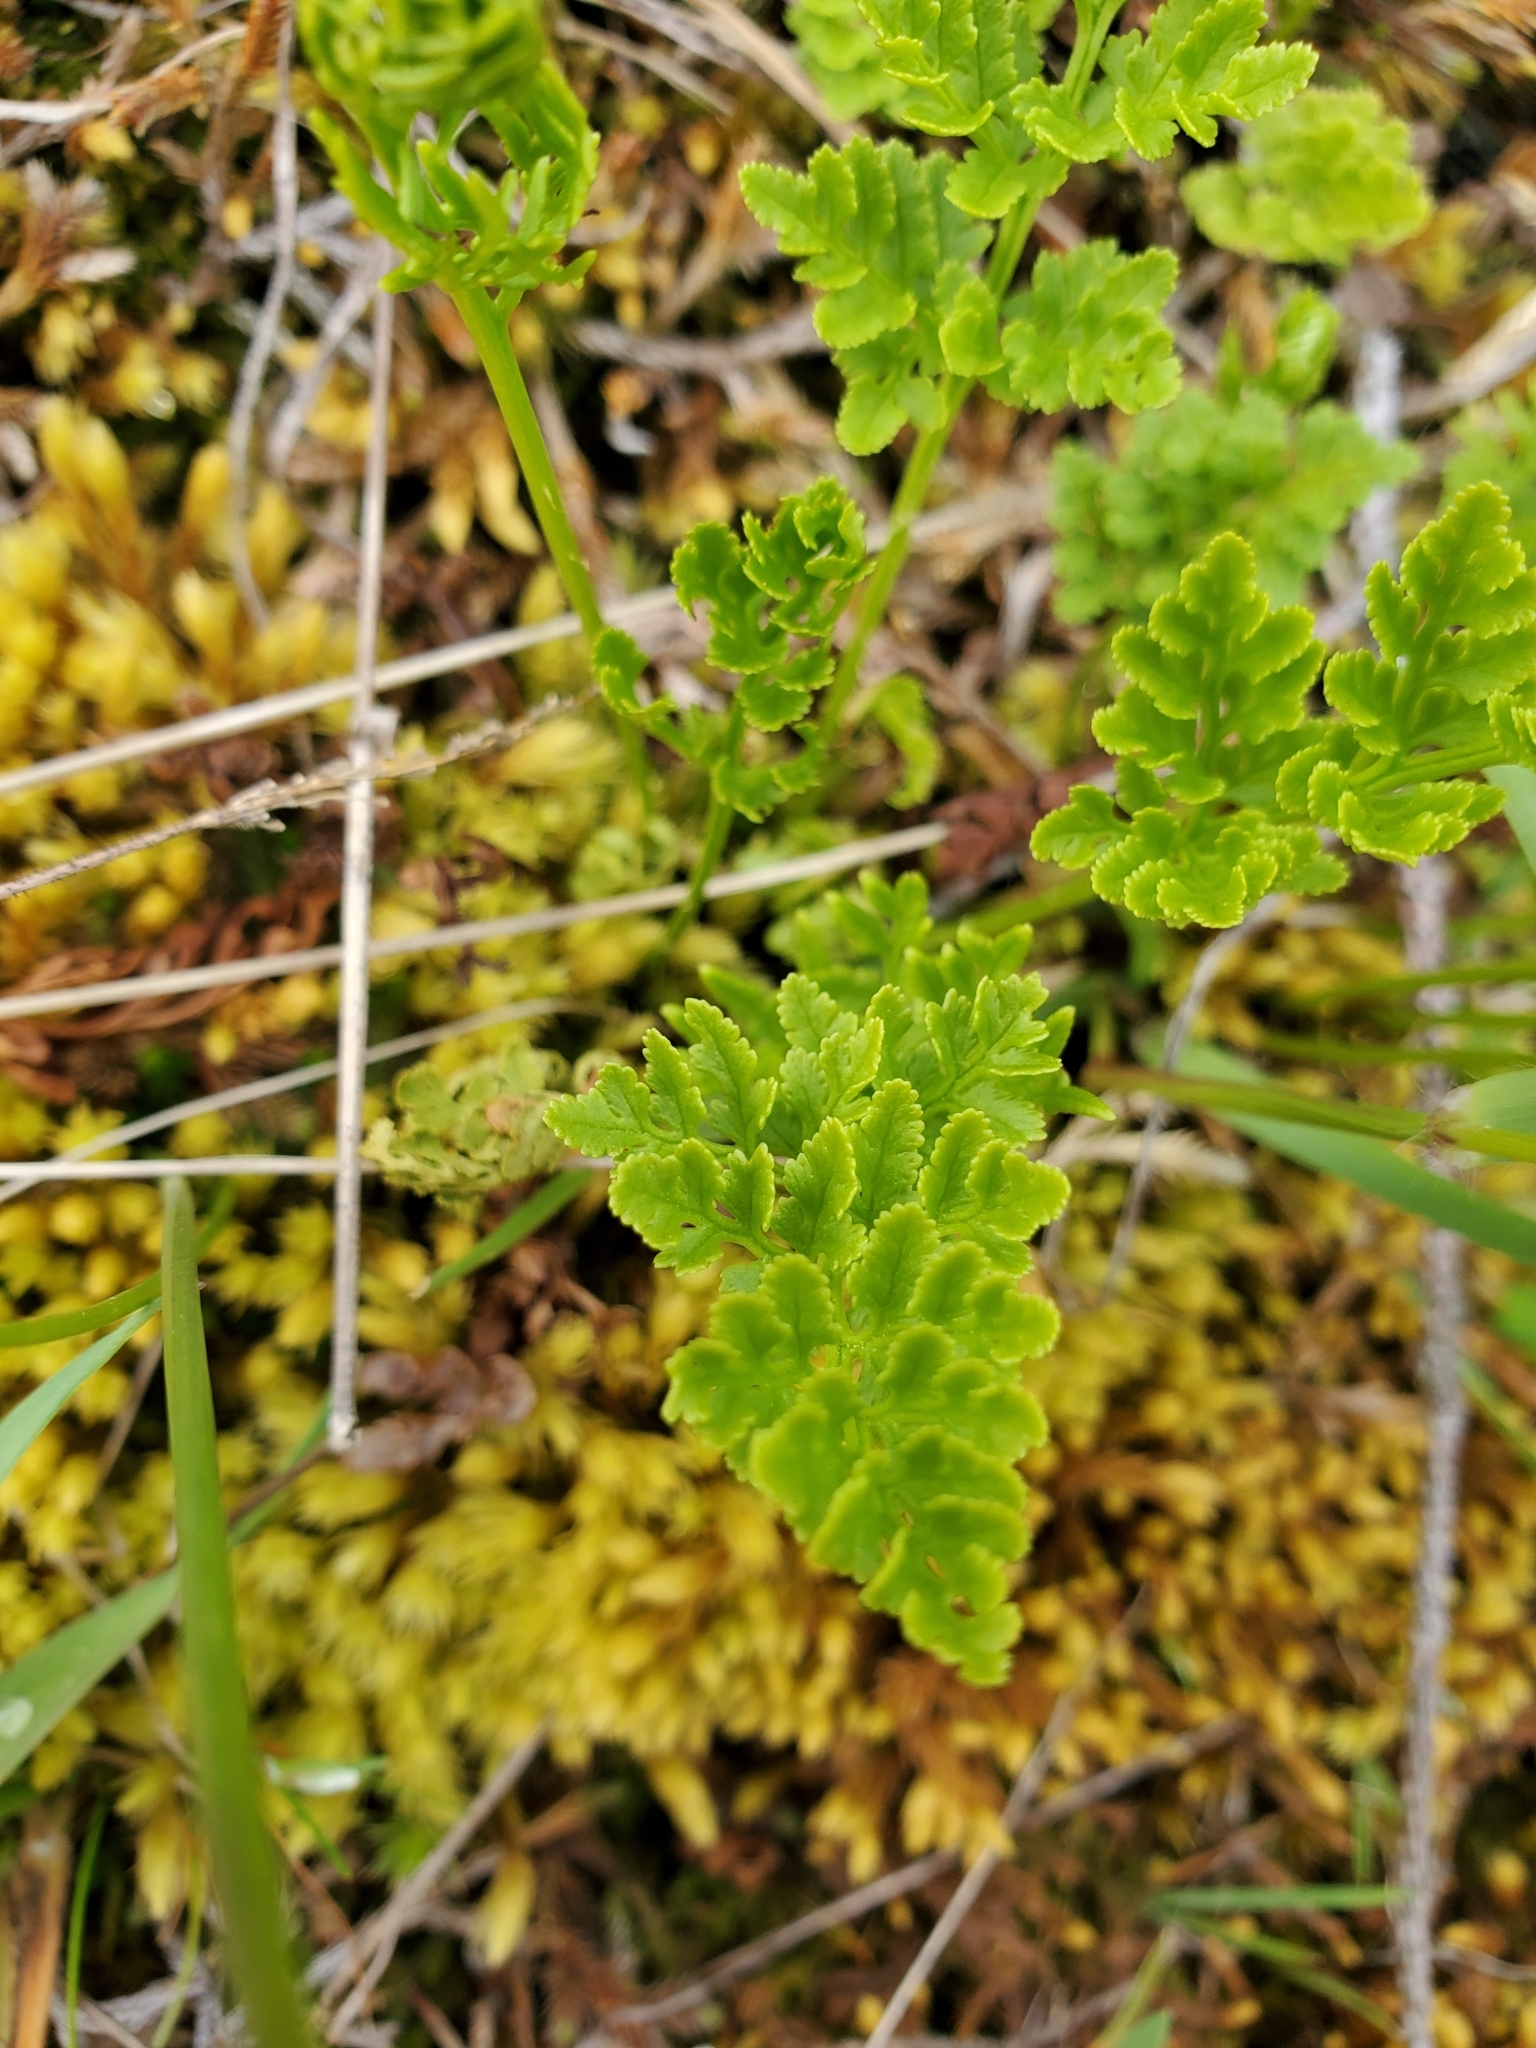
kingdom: Plantae
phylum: Tracheophyta
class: Polypodiopsida
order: Polypodiales
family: Pteridaceae
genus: Cryptogramma
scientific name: Cryptogramma acrostichoides
